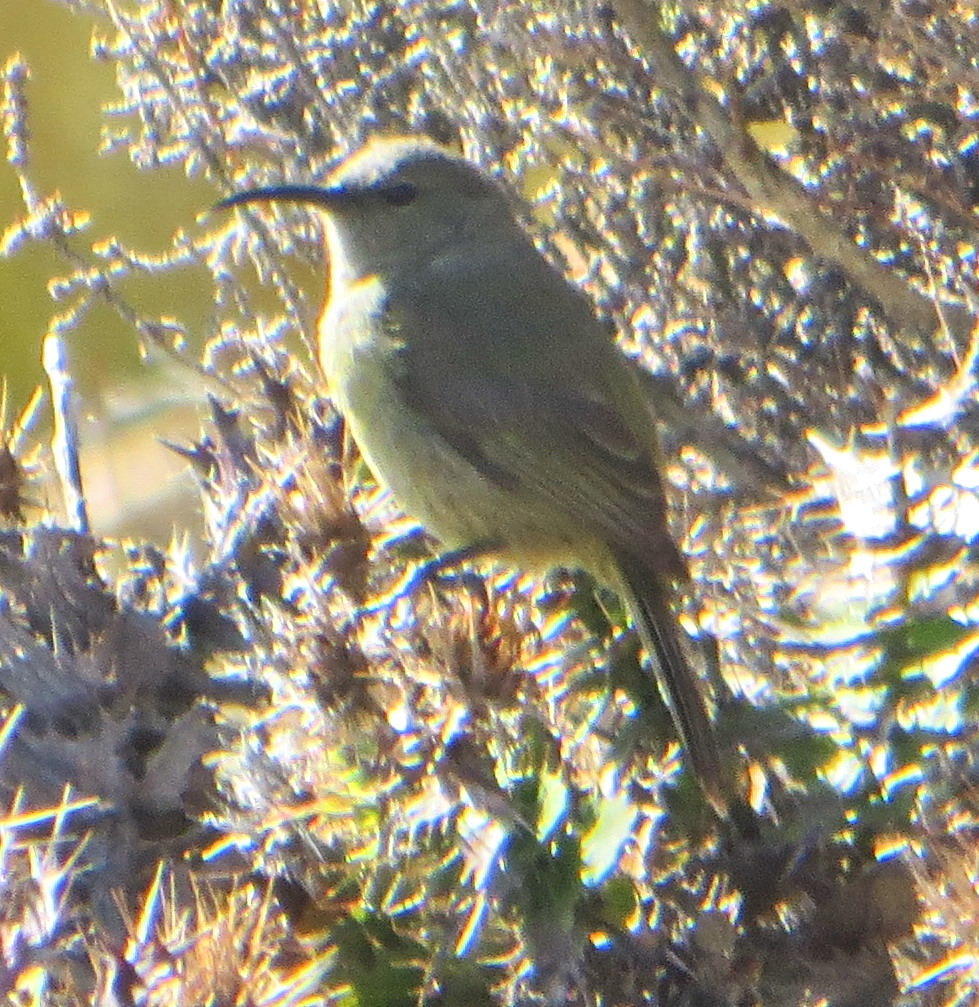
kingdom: Animalia
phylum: Chordata
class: Aves
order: Passeriformes
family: Nectariniidae
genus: Anthobaphes
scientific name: Anthobaphes violacea
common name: Orange-breasted sunbird
